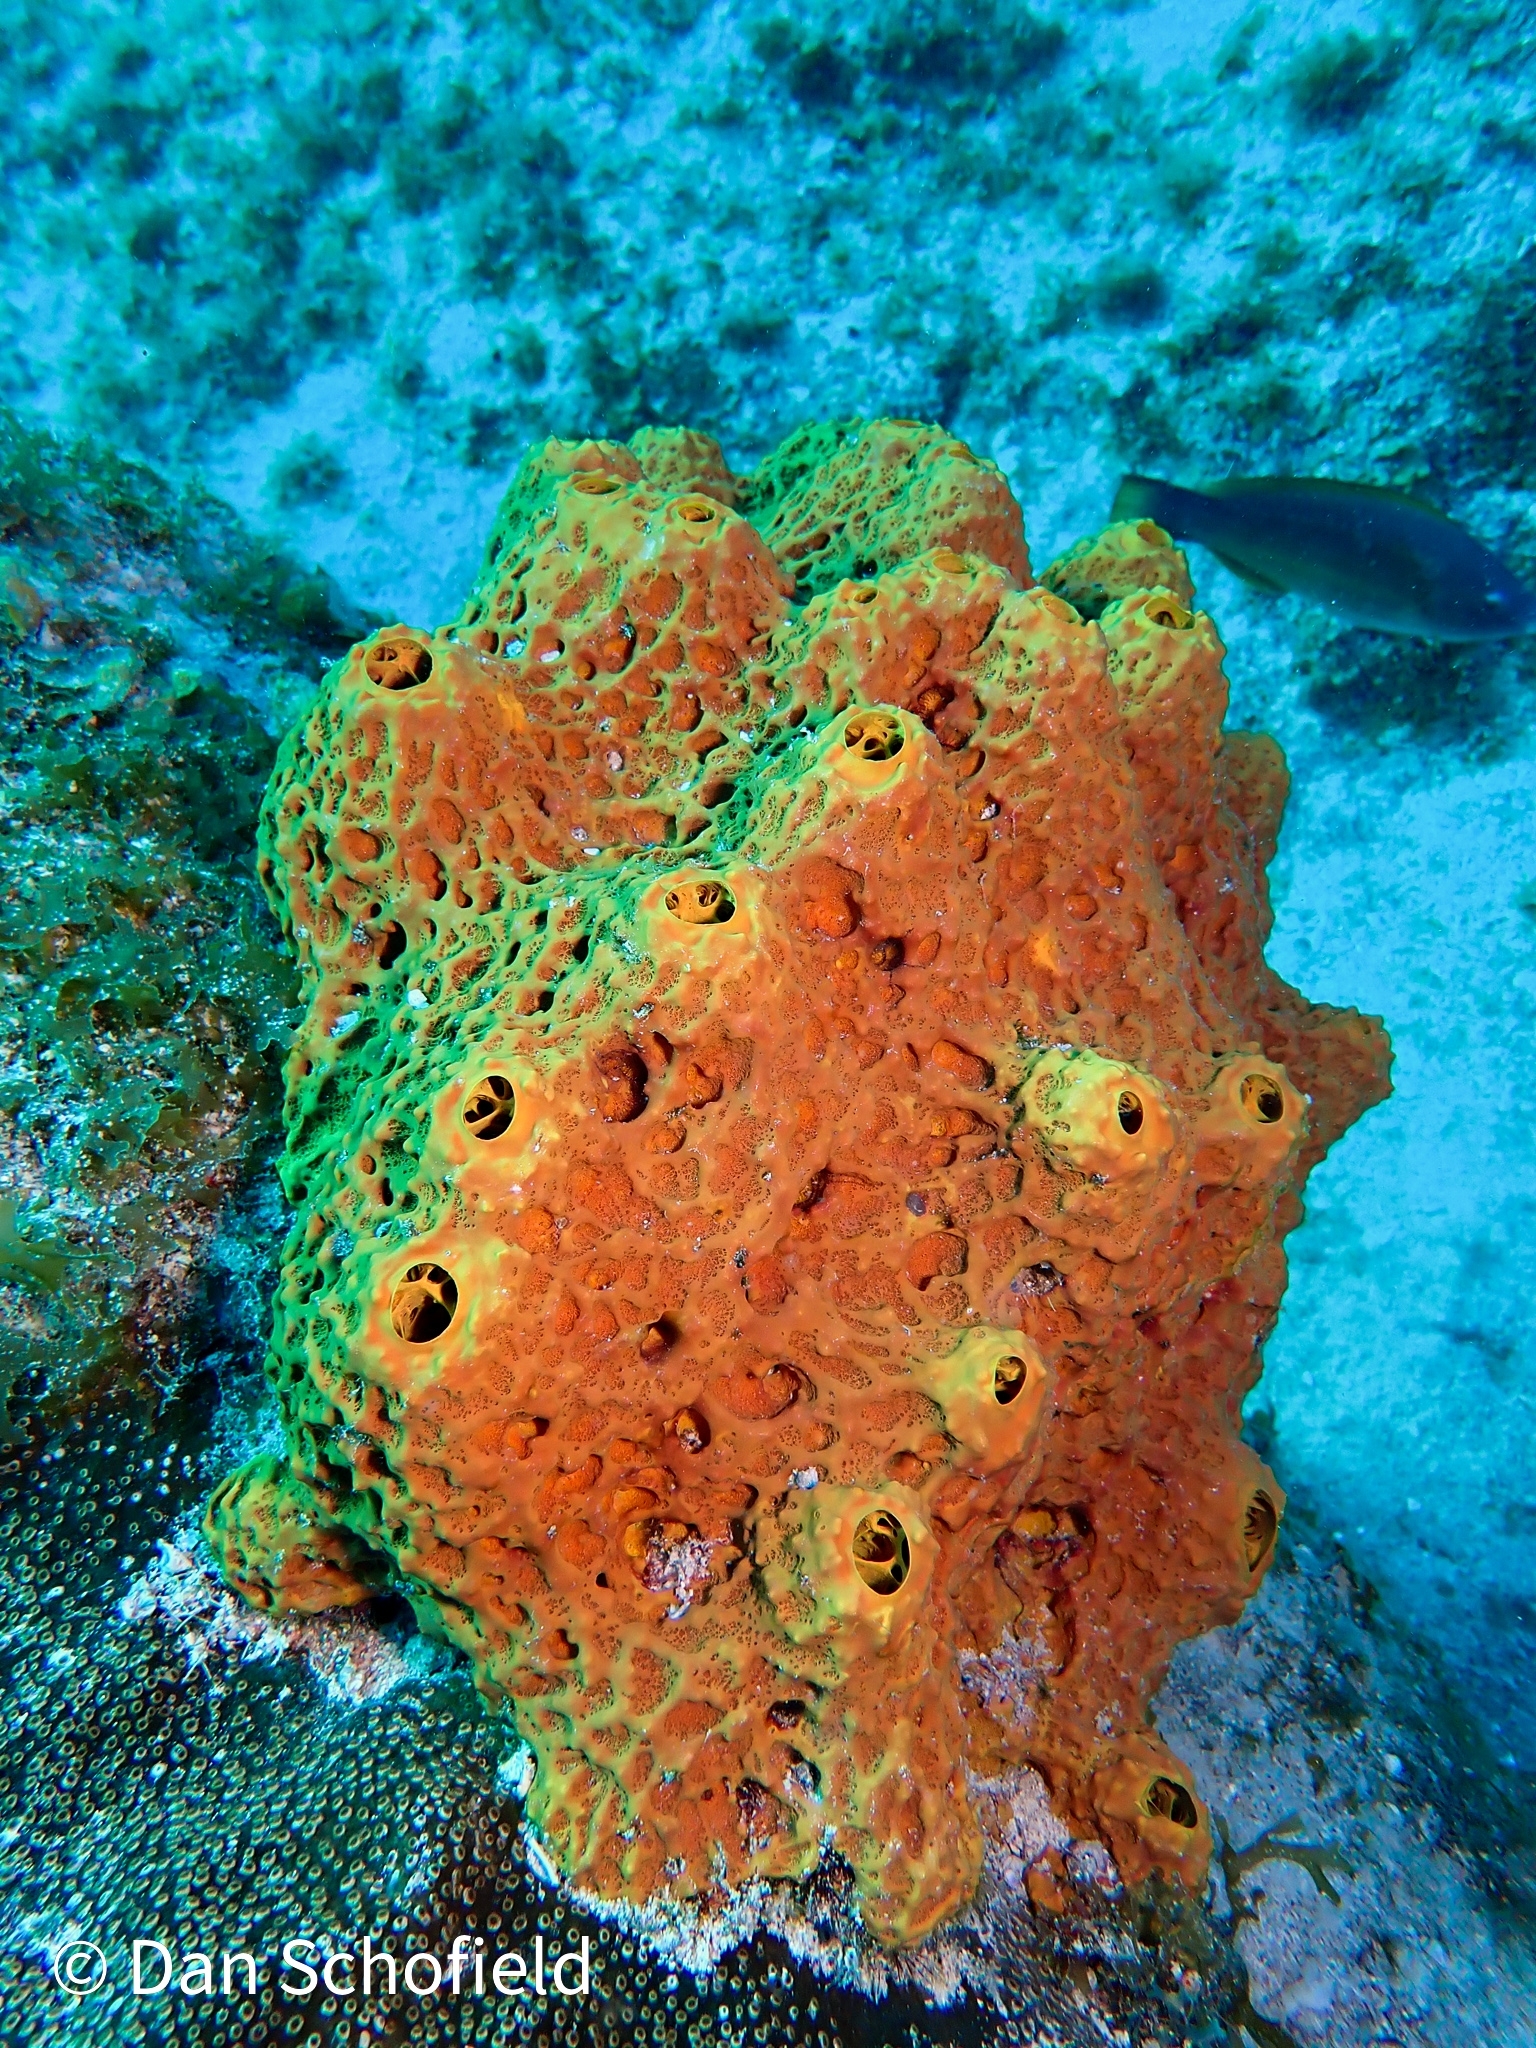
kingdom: Animalia
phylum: Porifera
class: Demospongiae
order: Verongiida
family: Aplysinidae
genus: Aiolochroia
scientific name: Aiolochroia crassa
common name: Branching tube sponge
